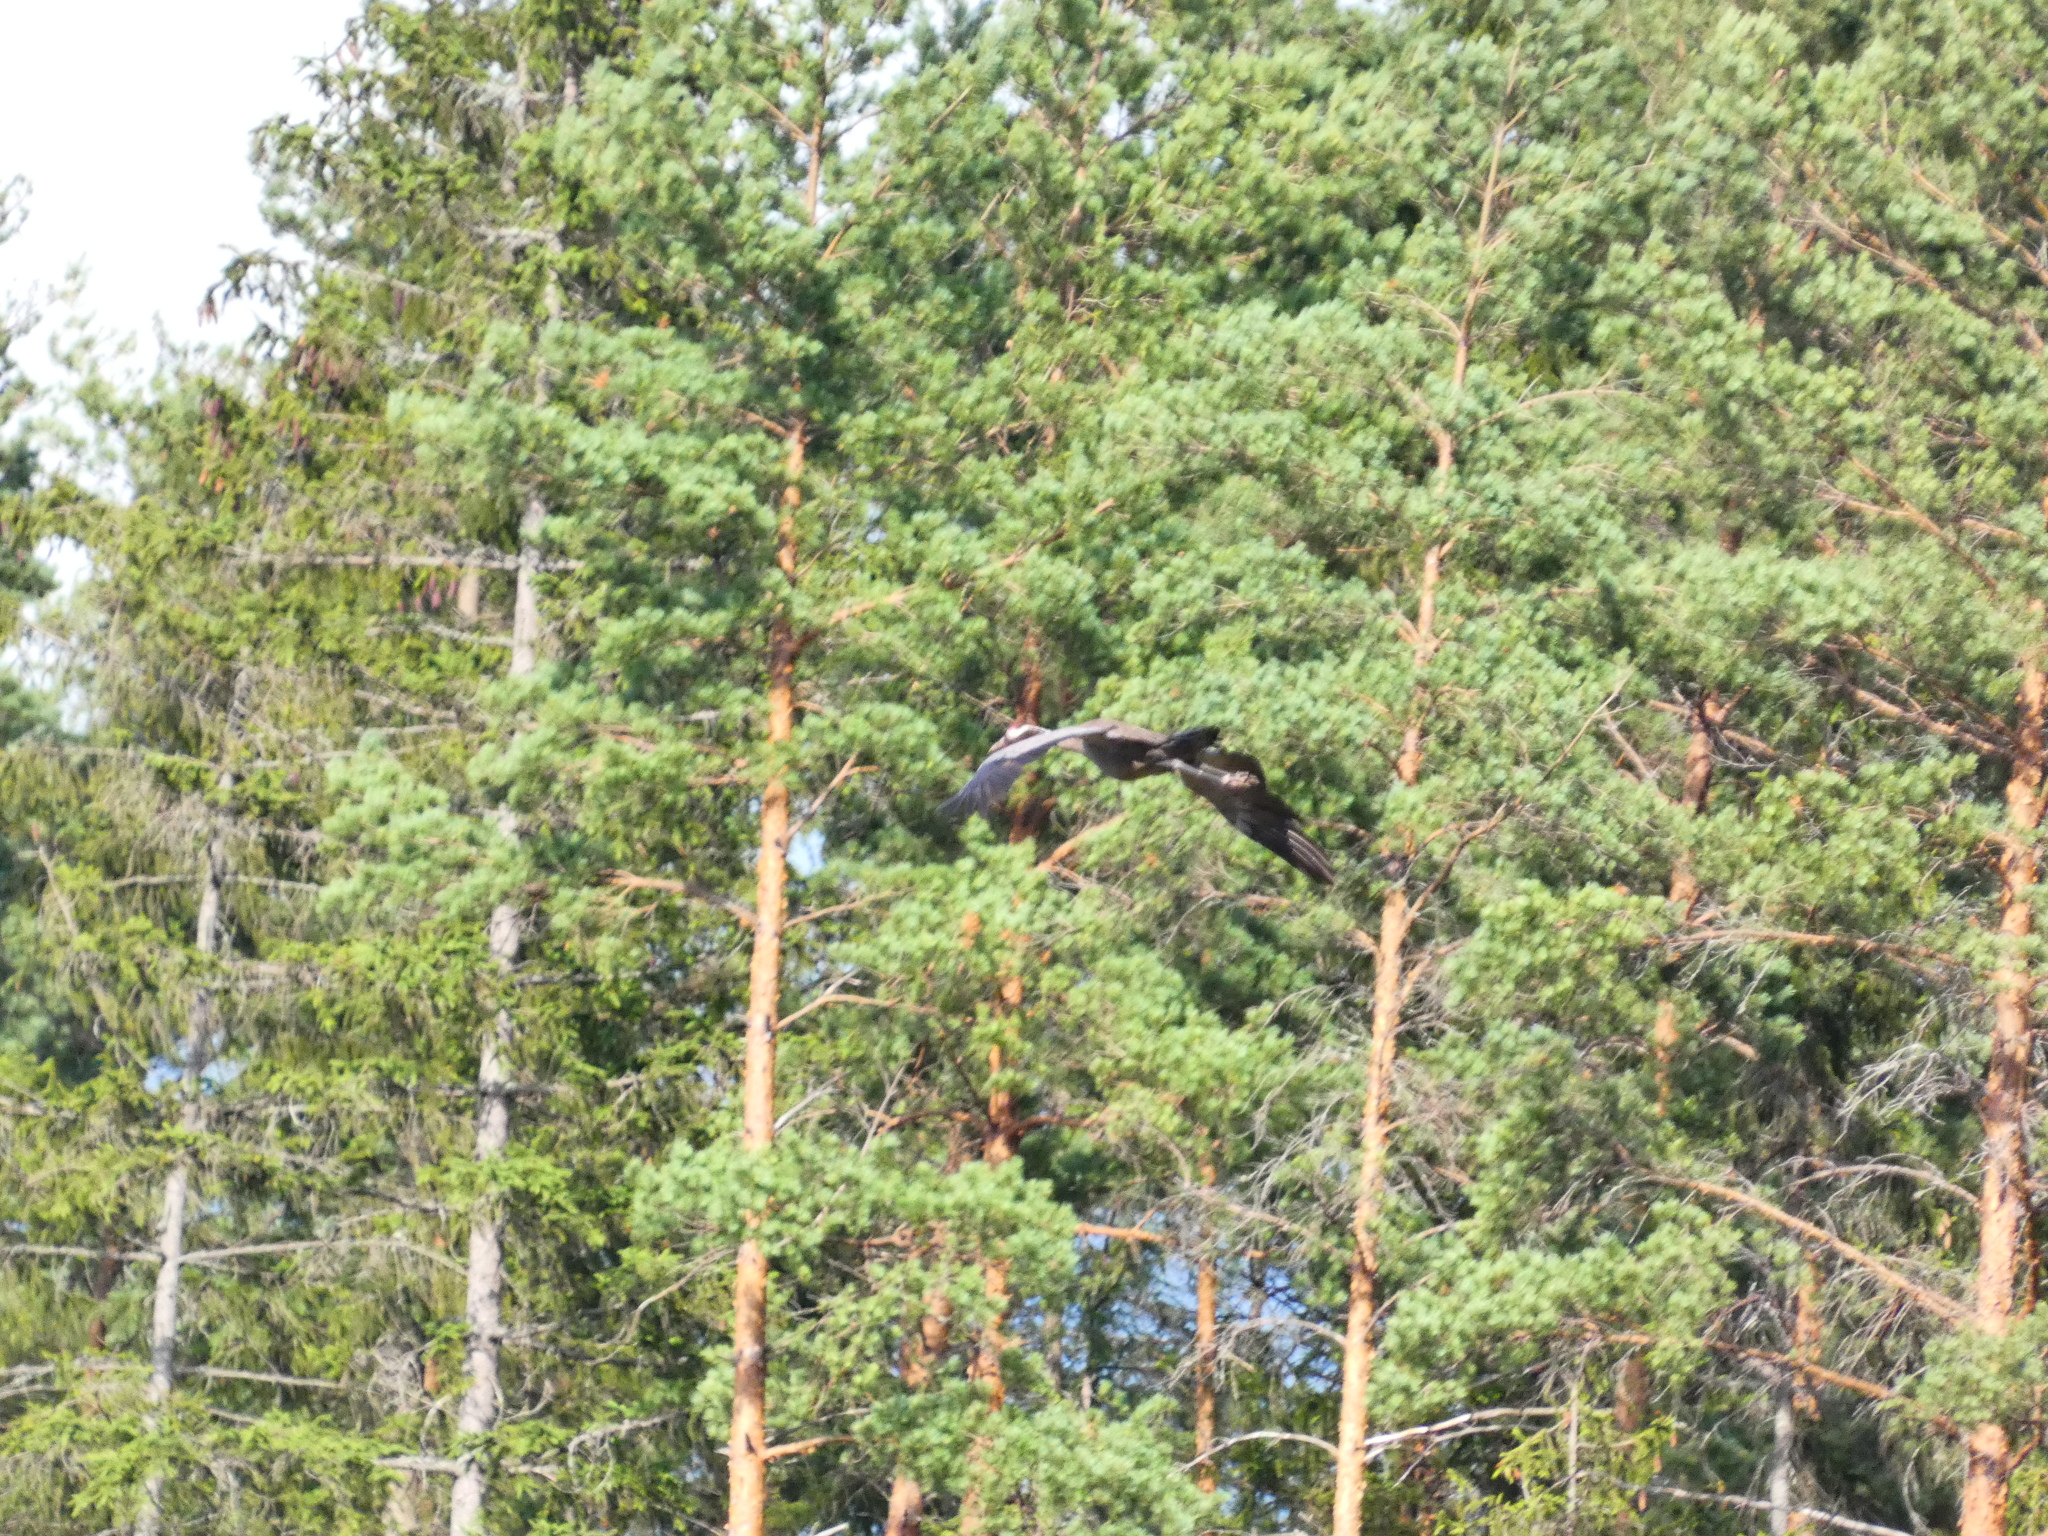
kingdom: Animalia
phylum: Chordata
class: Aves
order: Gruiformes
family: Gruidae
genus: Grus
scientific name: Grus grus
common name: Common crane
